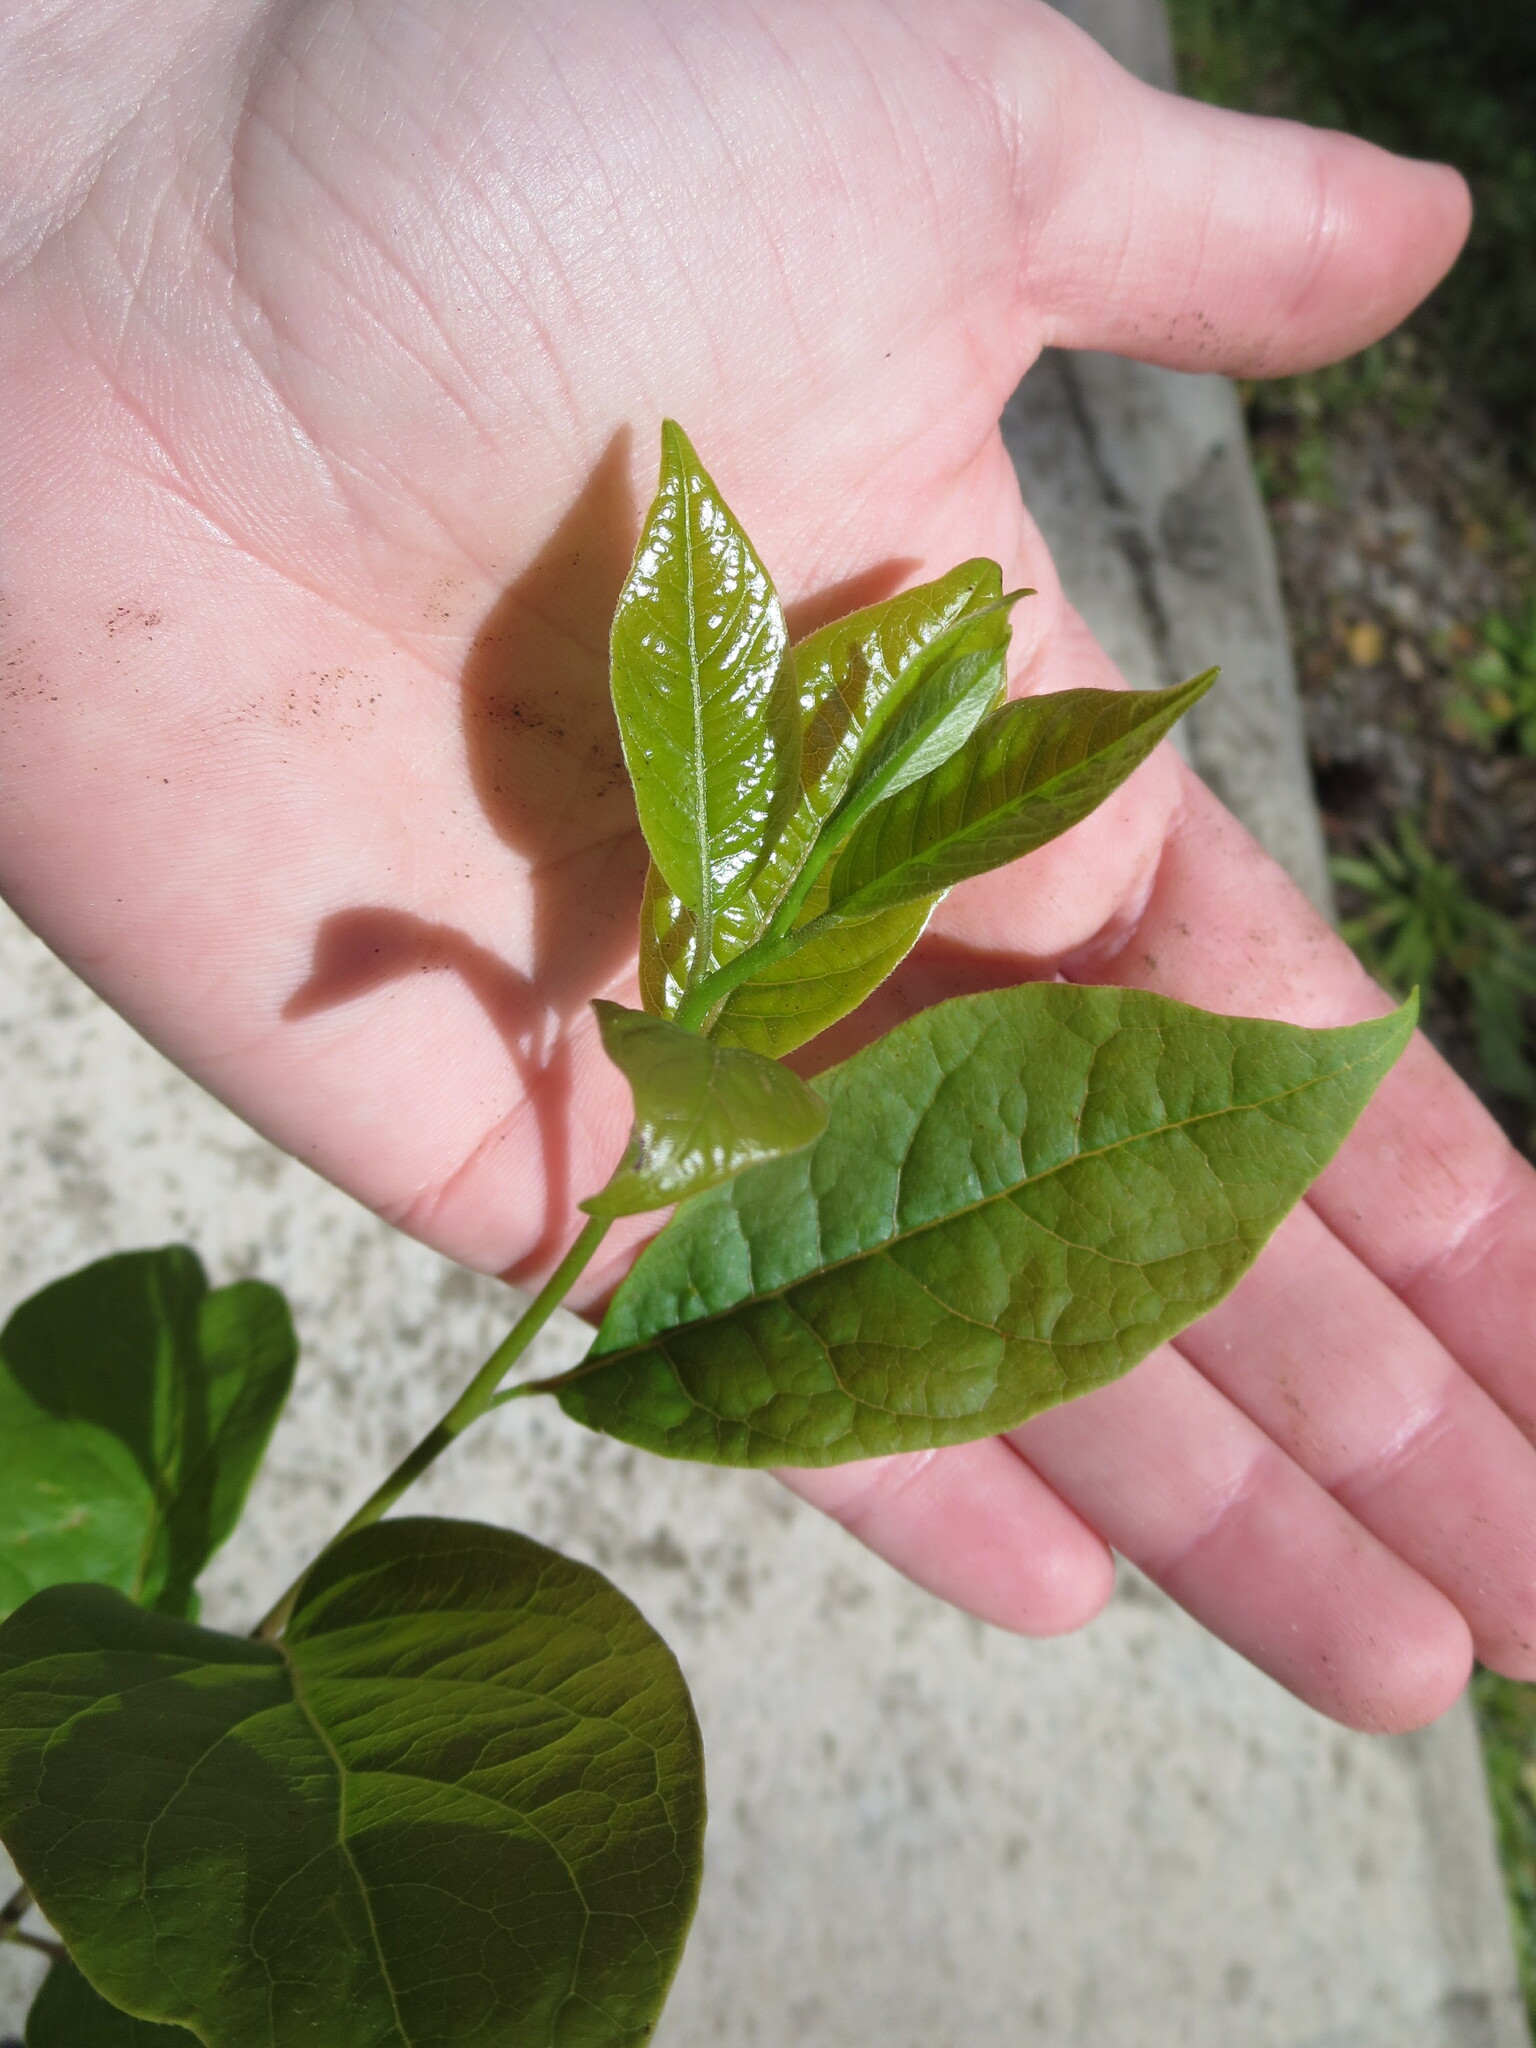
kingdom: Plantae
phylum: Tracheophyta
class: Magnoliopsida
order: Ericales
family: Ebenaceae
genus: Diospyros
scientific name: Diospyros virginiana
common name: Persimmon
